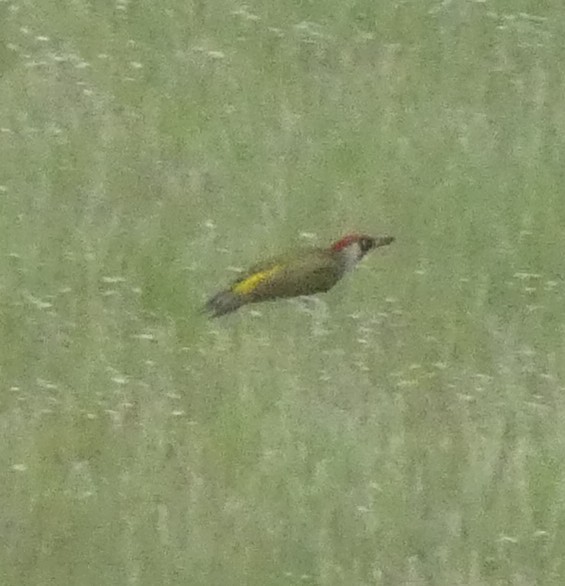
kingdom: Animalia
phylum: Chordata
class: Aves
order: Piciformes
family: Picidae
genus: Picus
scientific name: Picus viridis
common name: European green woodpecker
